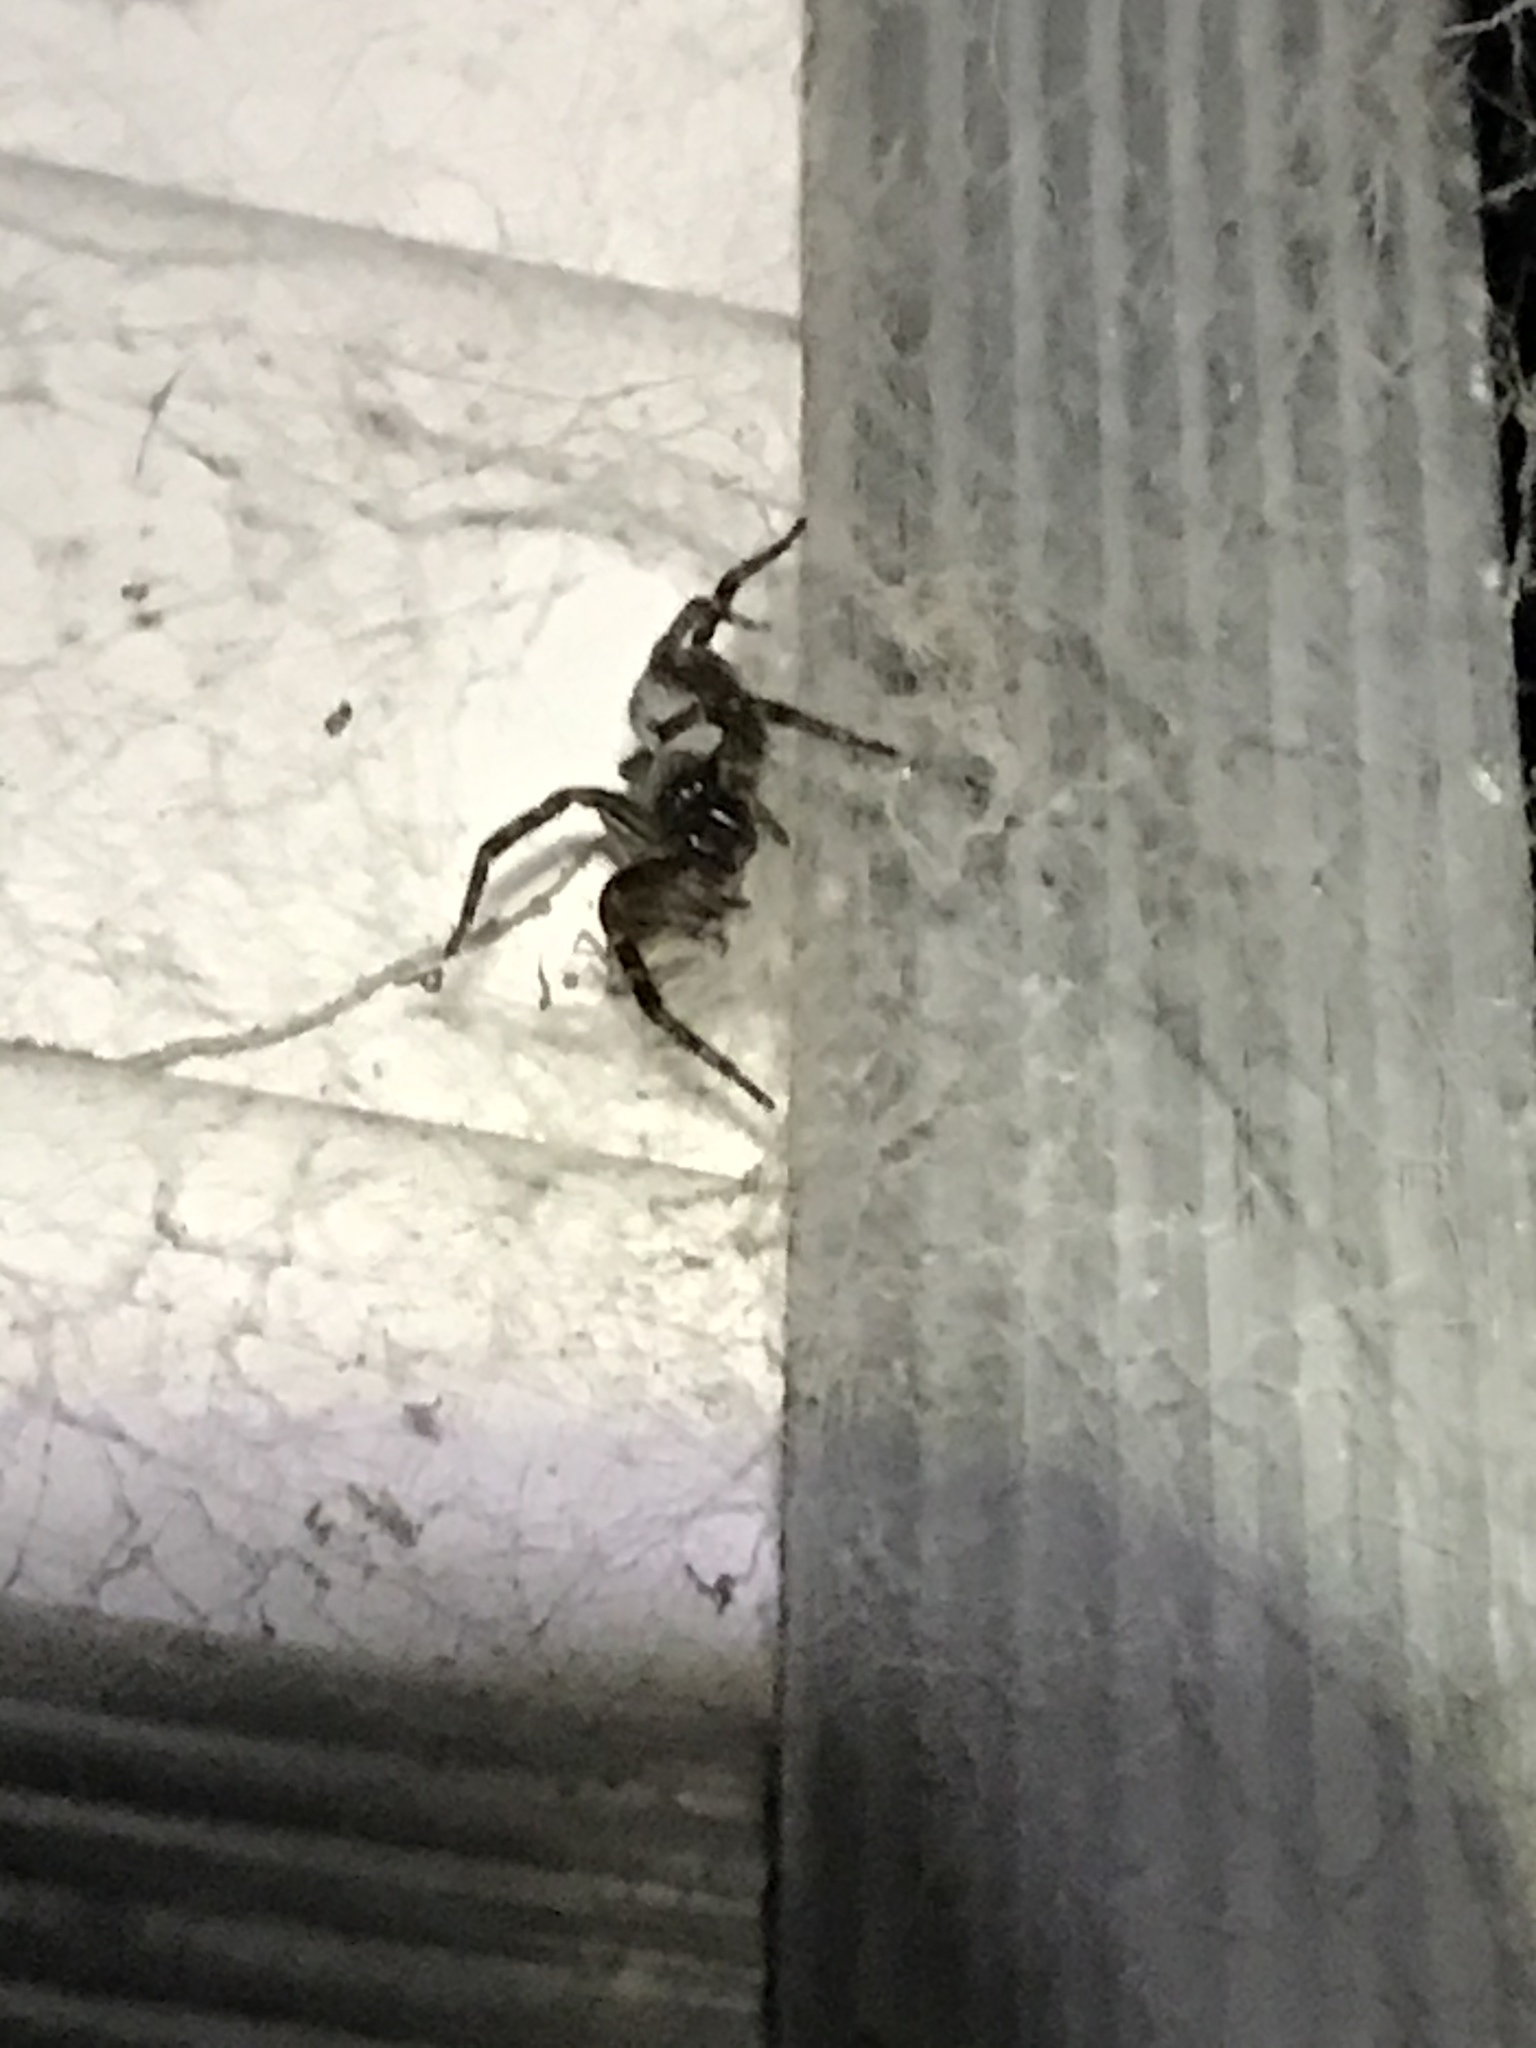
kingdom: Animalia
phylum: Arthropoda
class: Arachnida
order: Araneae
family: Desidae
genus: Badumna
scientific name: Badumna longinqua
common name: Gray house spider
